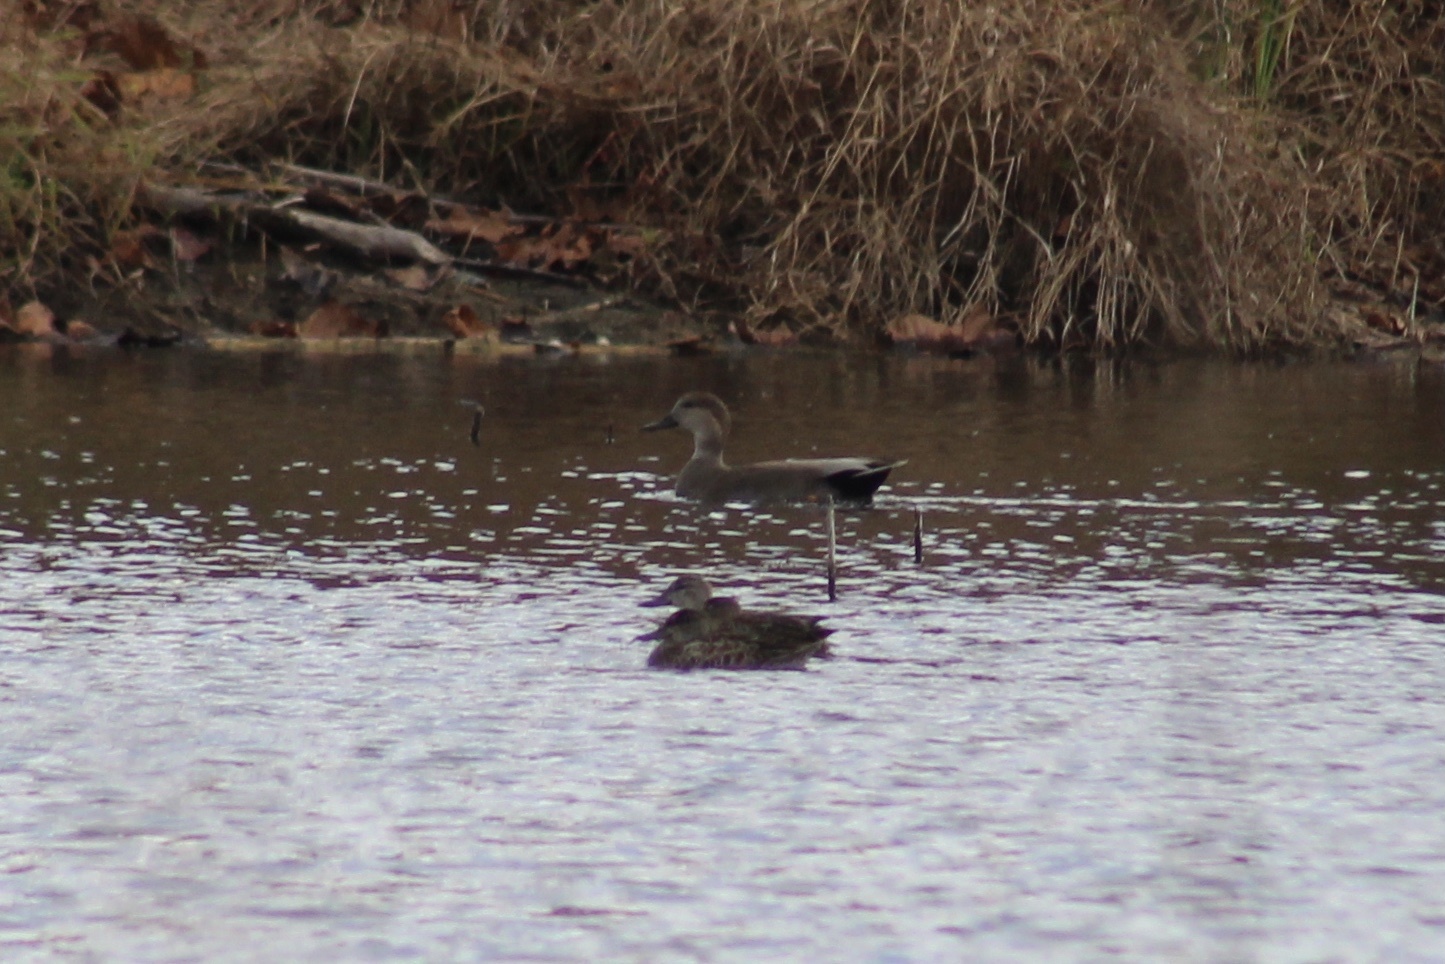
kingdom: Animalia
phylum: Chordata
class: Aves
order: Anseriformes
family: Anatidae
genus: Mareca
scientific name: Mareca strepera
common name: Gadwall
